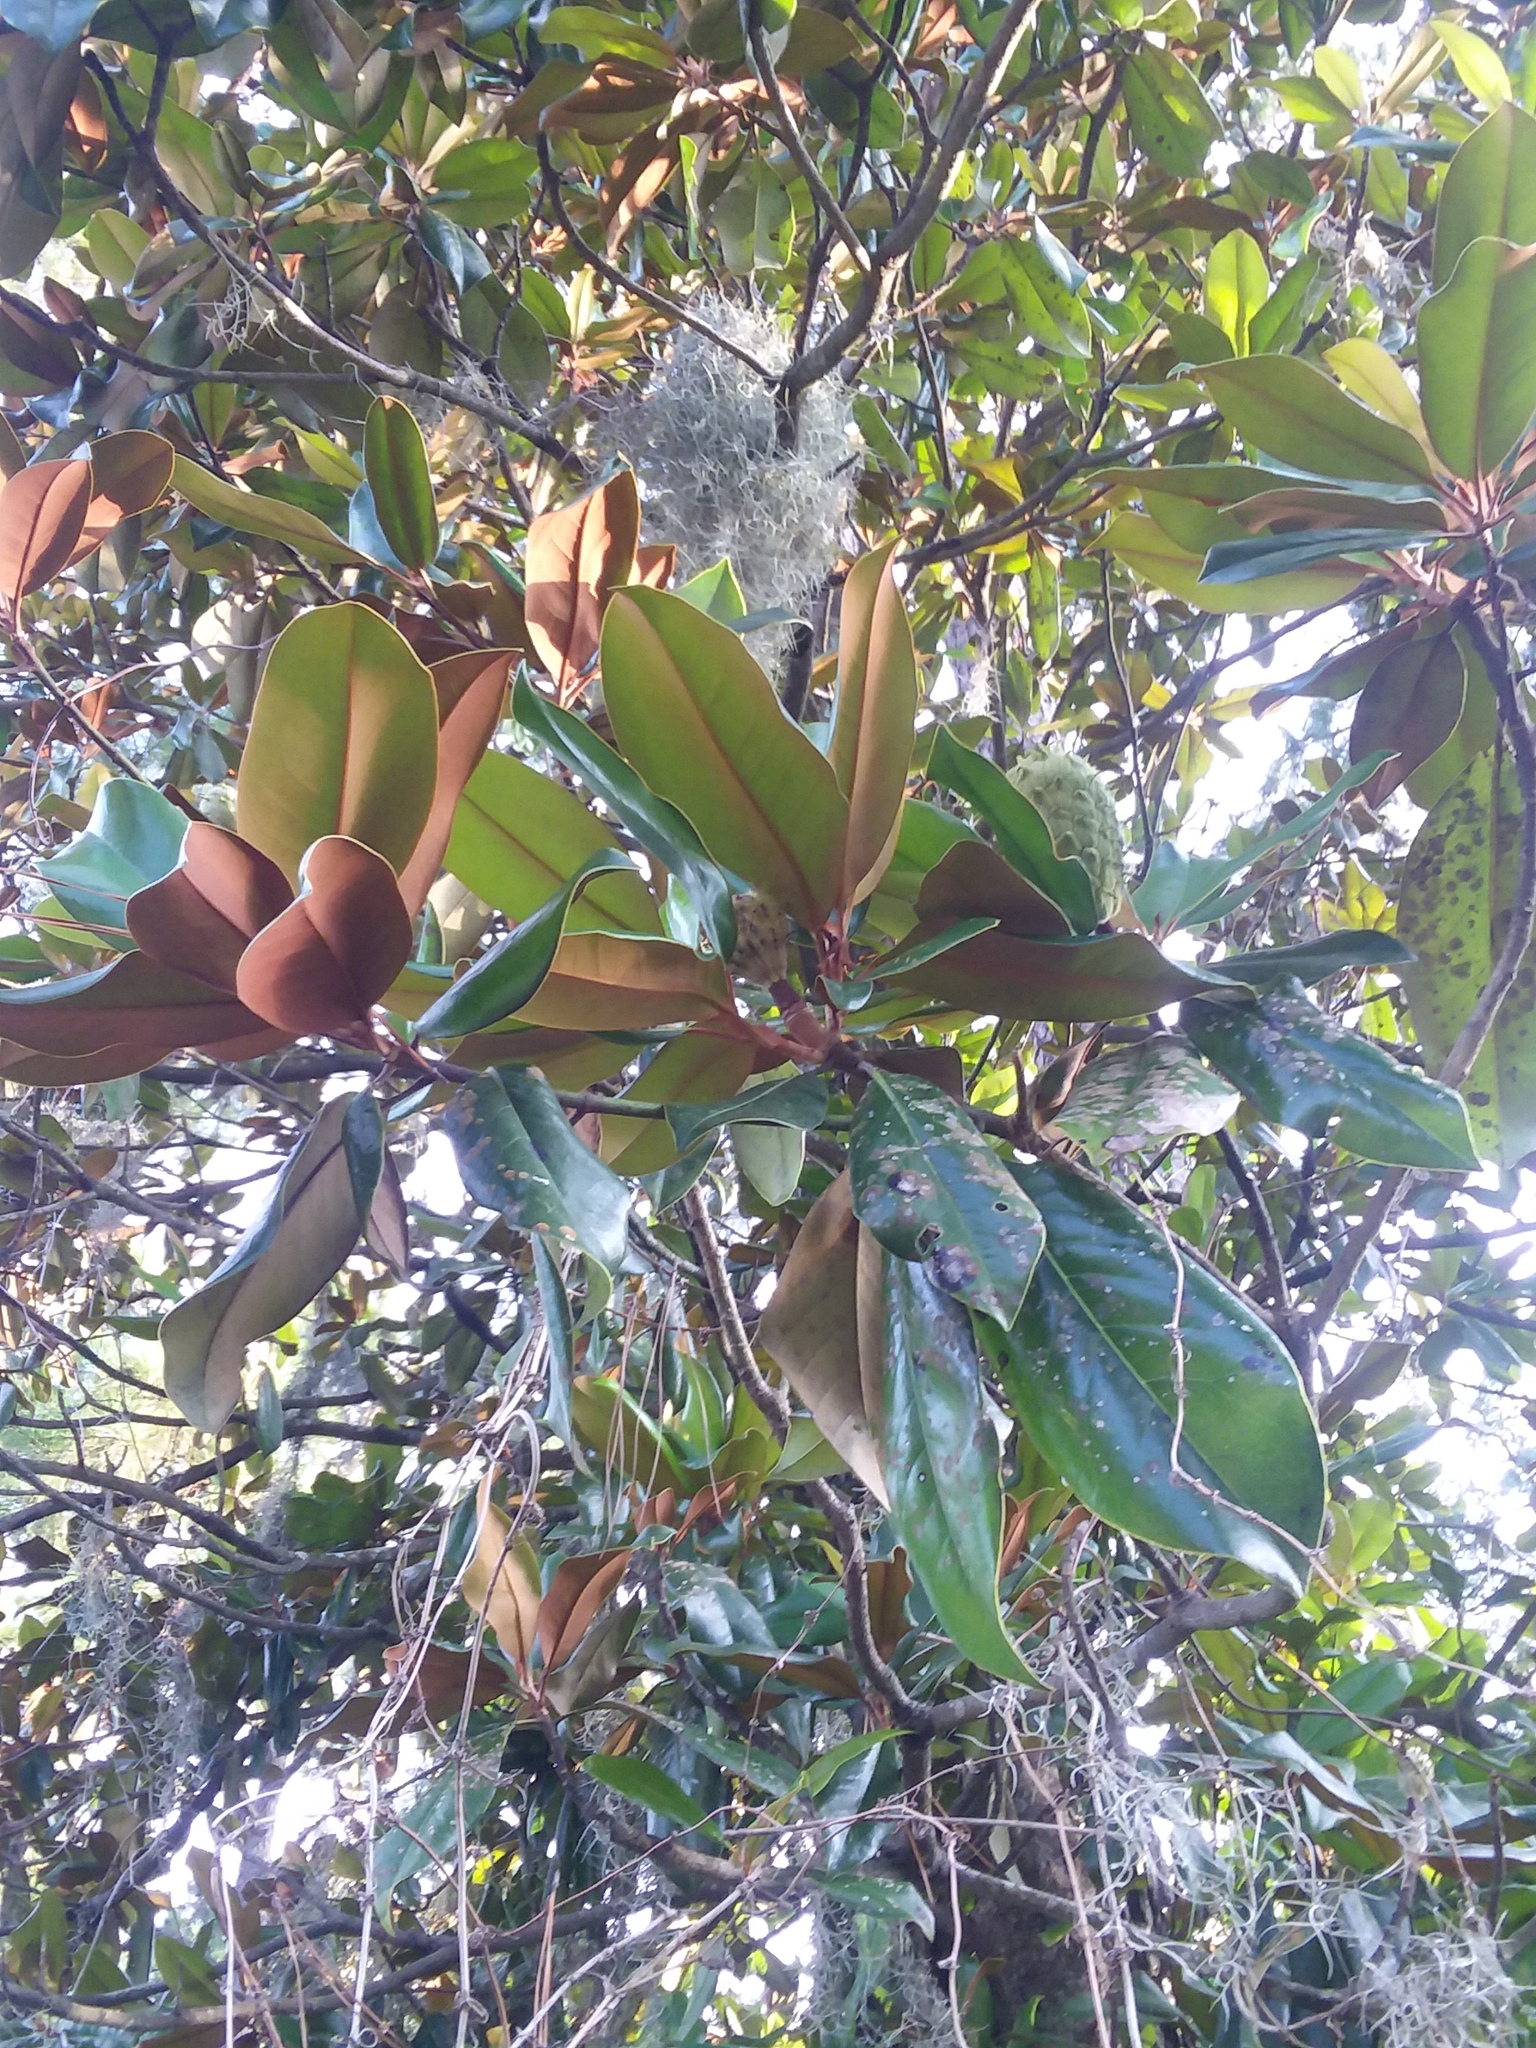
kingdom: Plantae
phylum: Tracheophyta
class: Magnoliopsida
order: Magnoliales
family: Magnoliaceae
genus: Magnolia
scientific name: Magnolia grandiflora
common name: Southern magnolia
